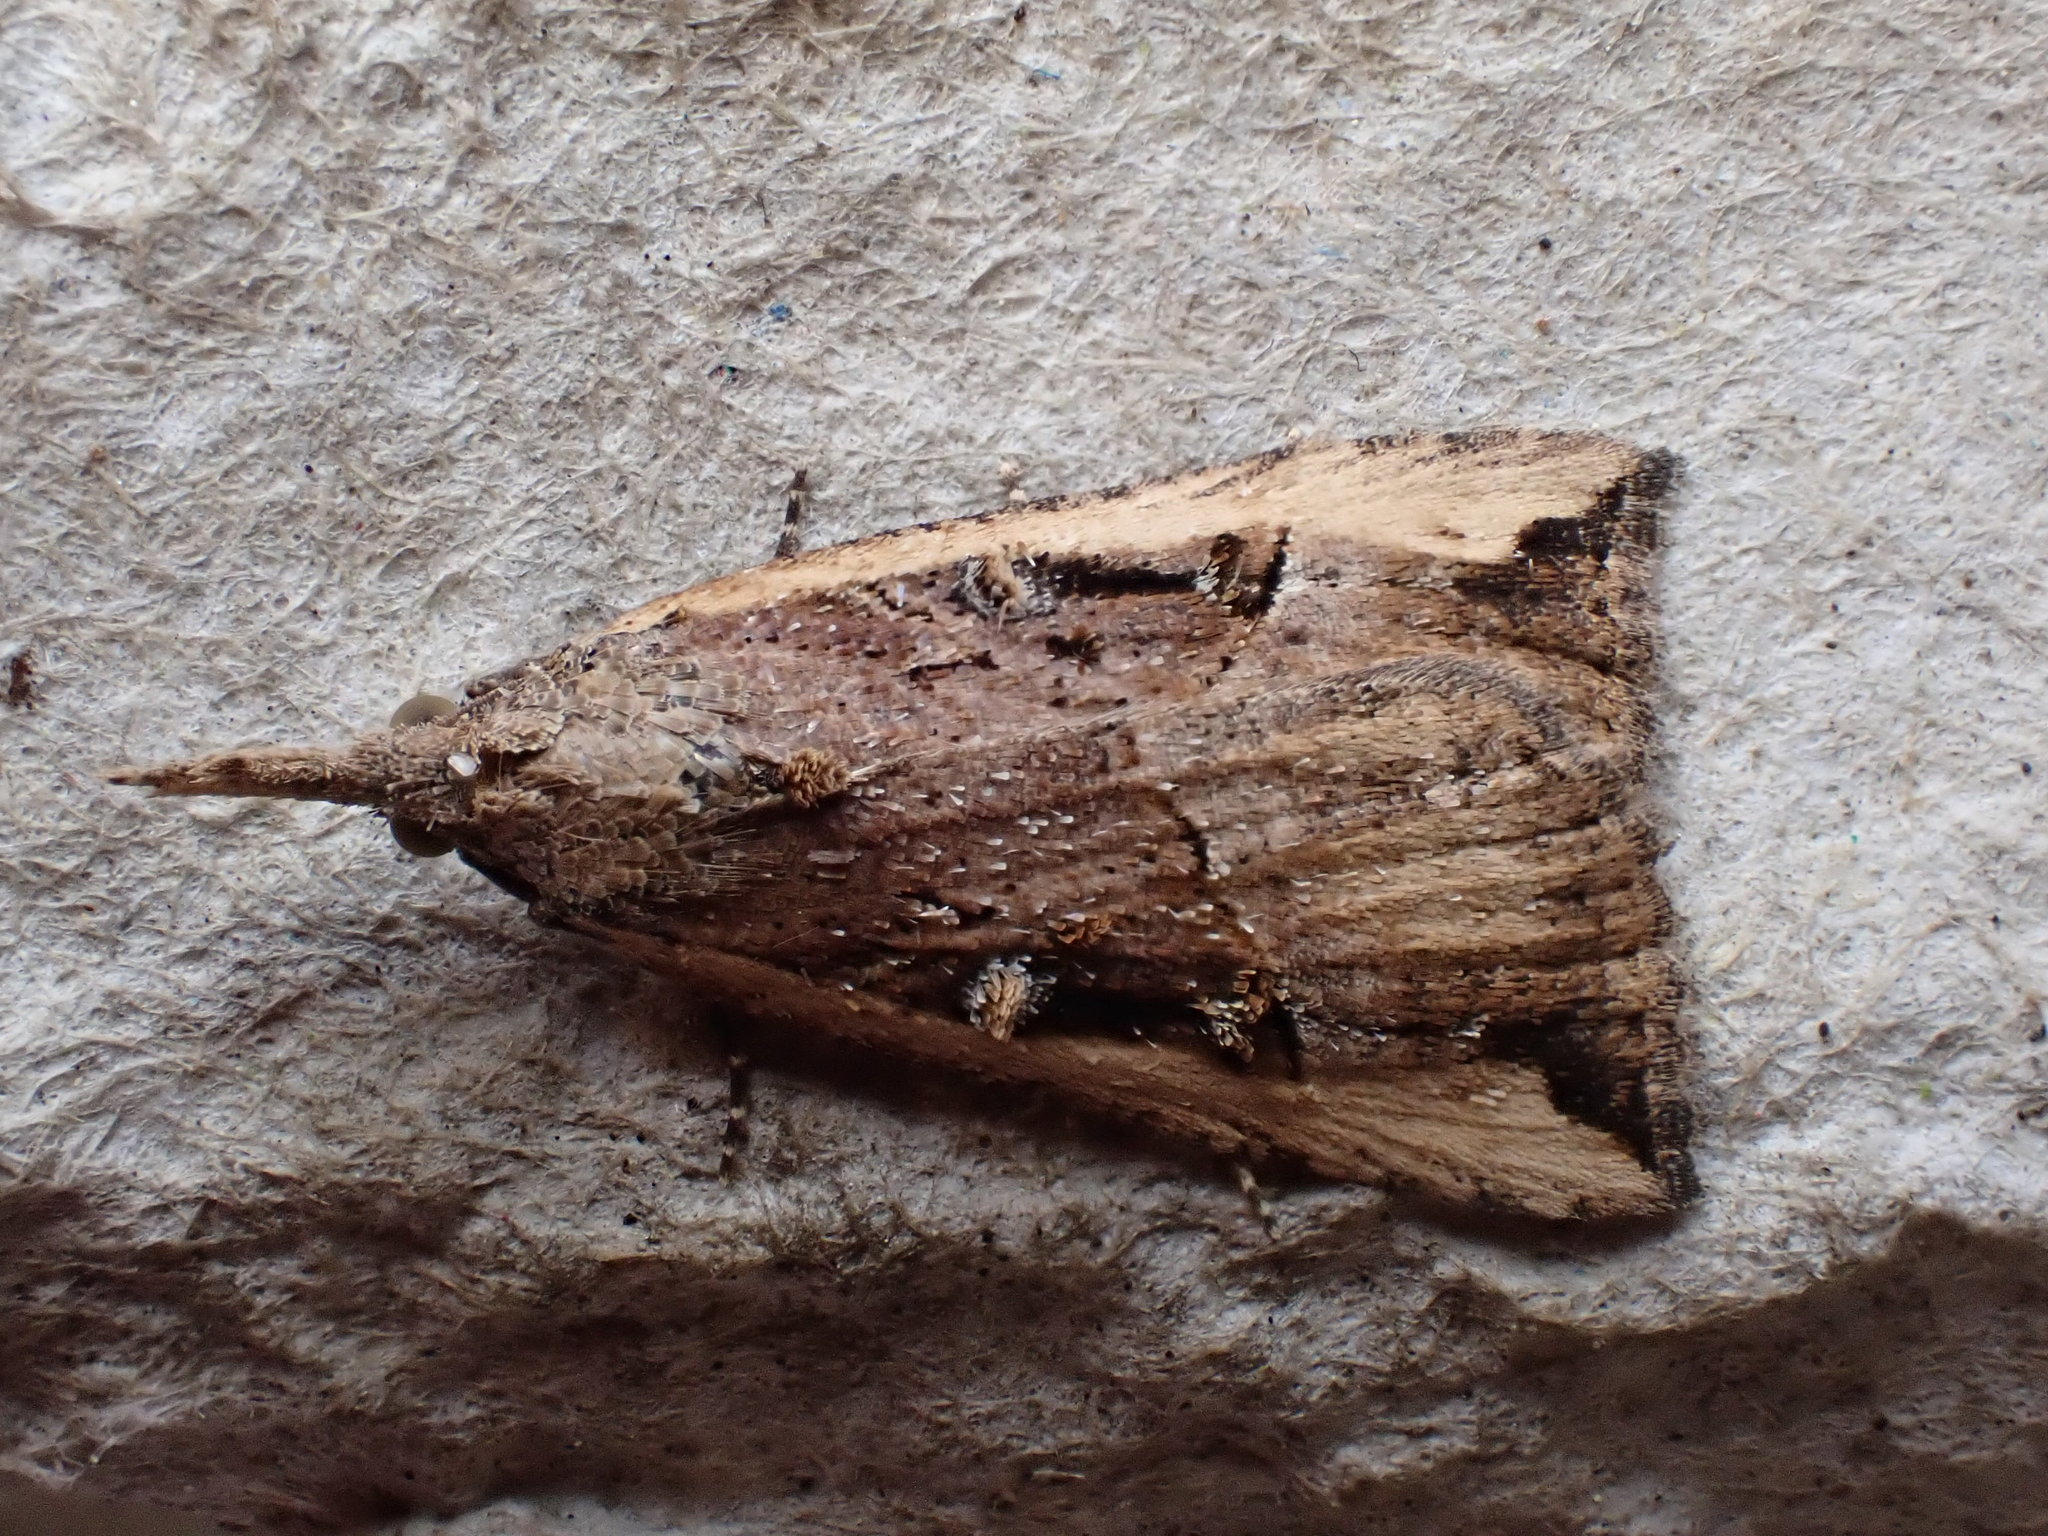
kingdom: Animalia
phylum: Arthropoda
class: Insecta
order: Lepidoptera
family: Erebidae
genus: Hypena
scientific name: Hypena rostralis
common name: Buttoned snout
